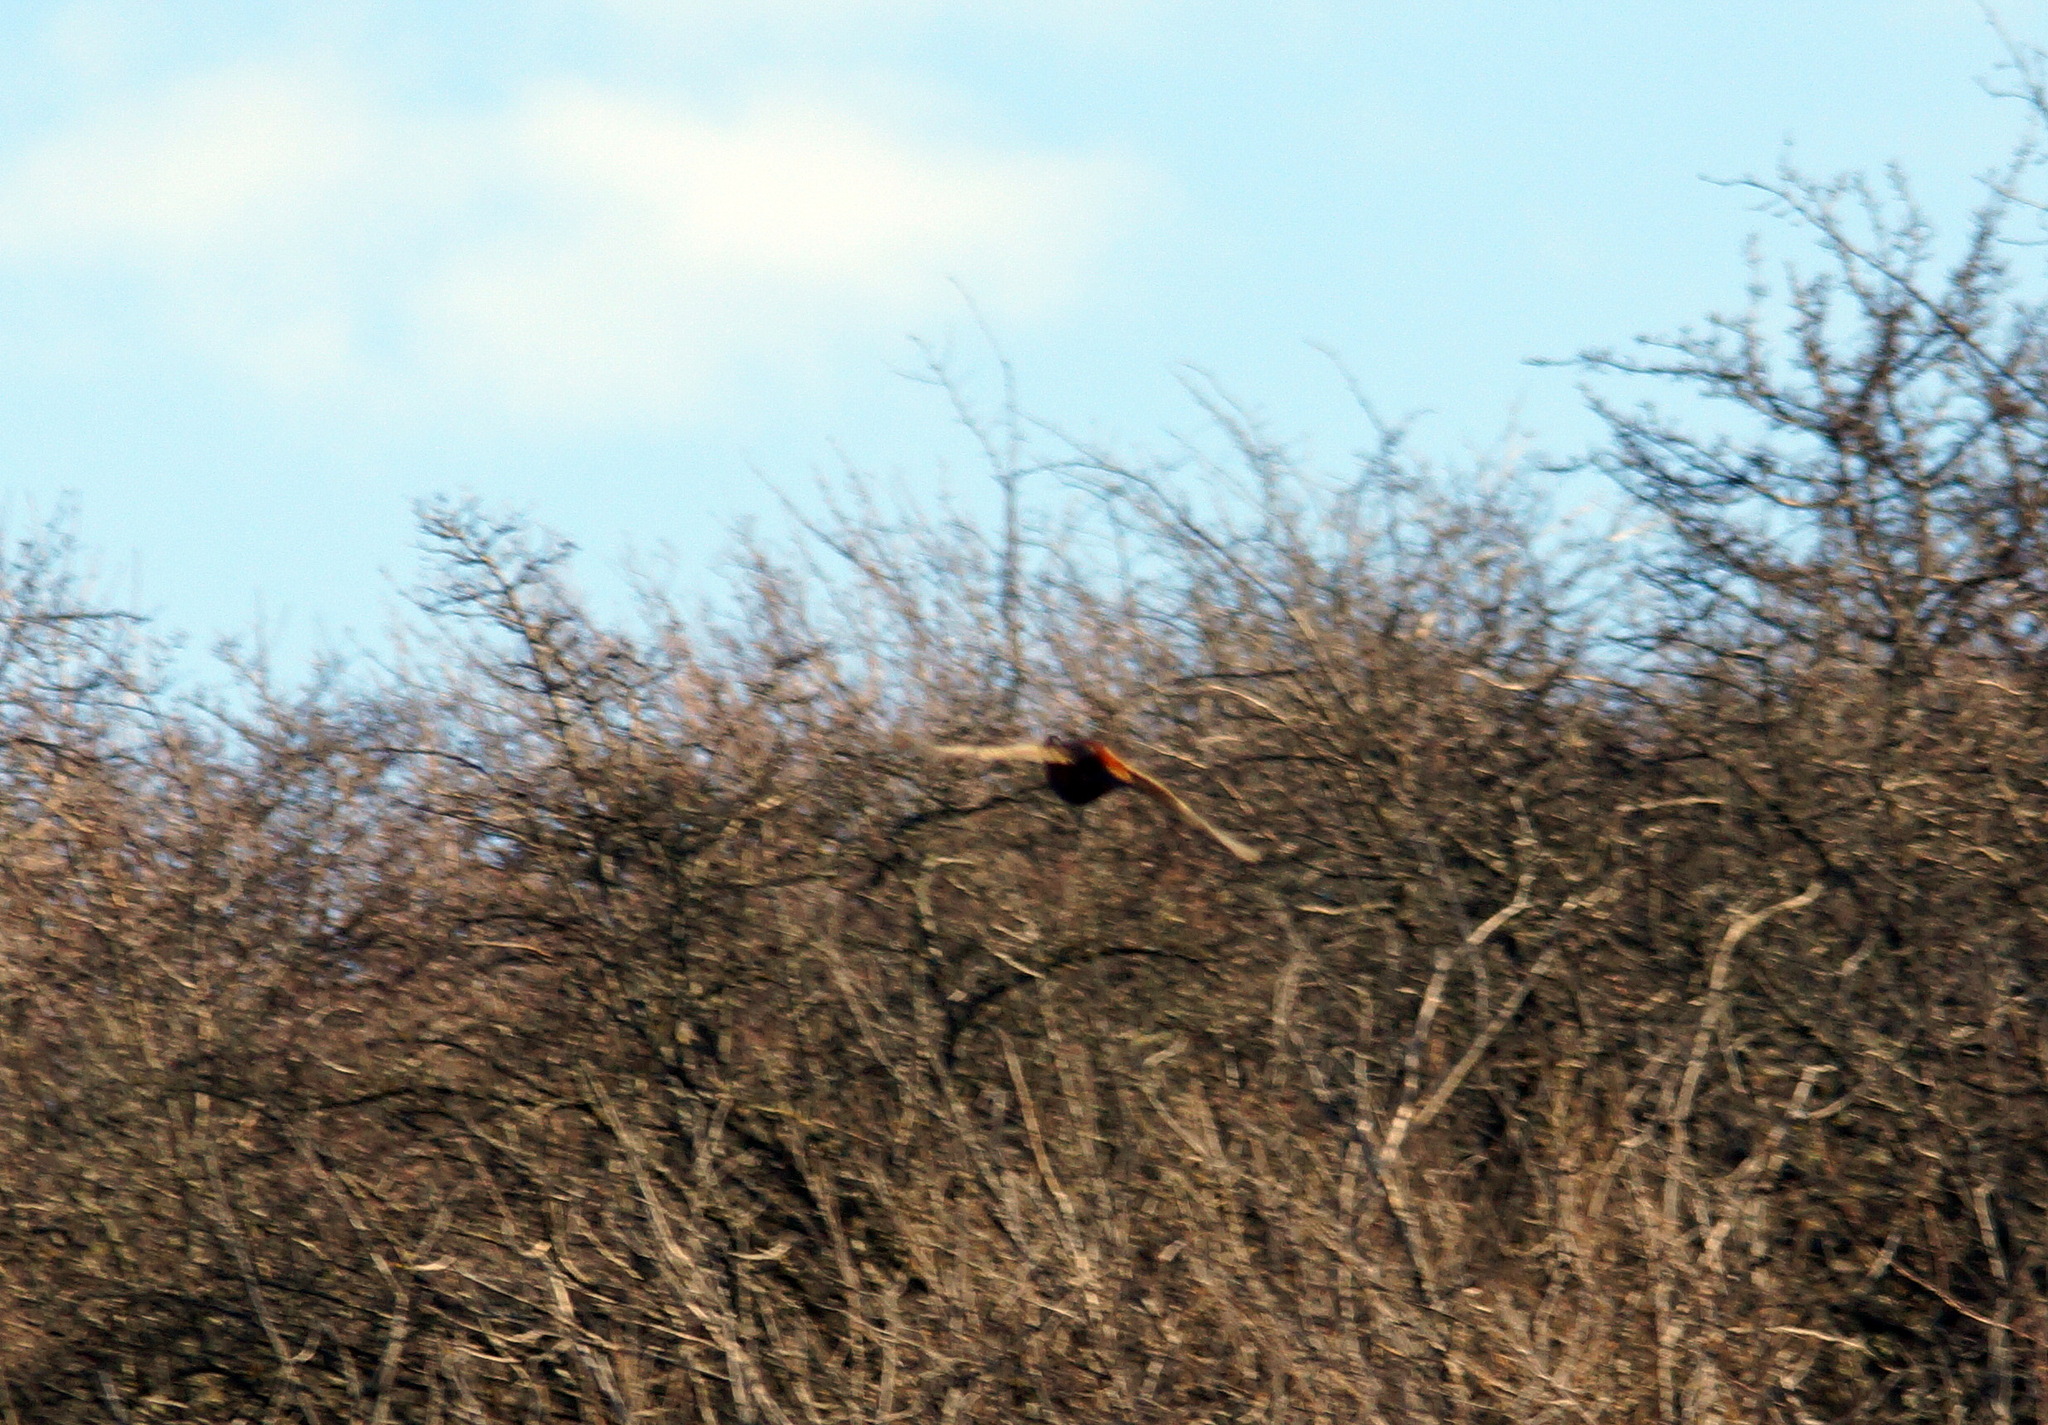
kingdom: Animalia
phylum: Chordata
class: Aves
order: Galliformes
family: Phasianidae
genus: Phasianus
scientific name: Phasianus colchicus
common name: Common pheasant
